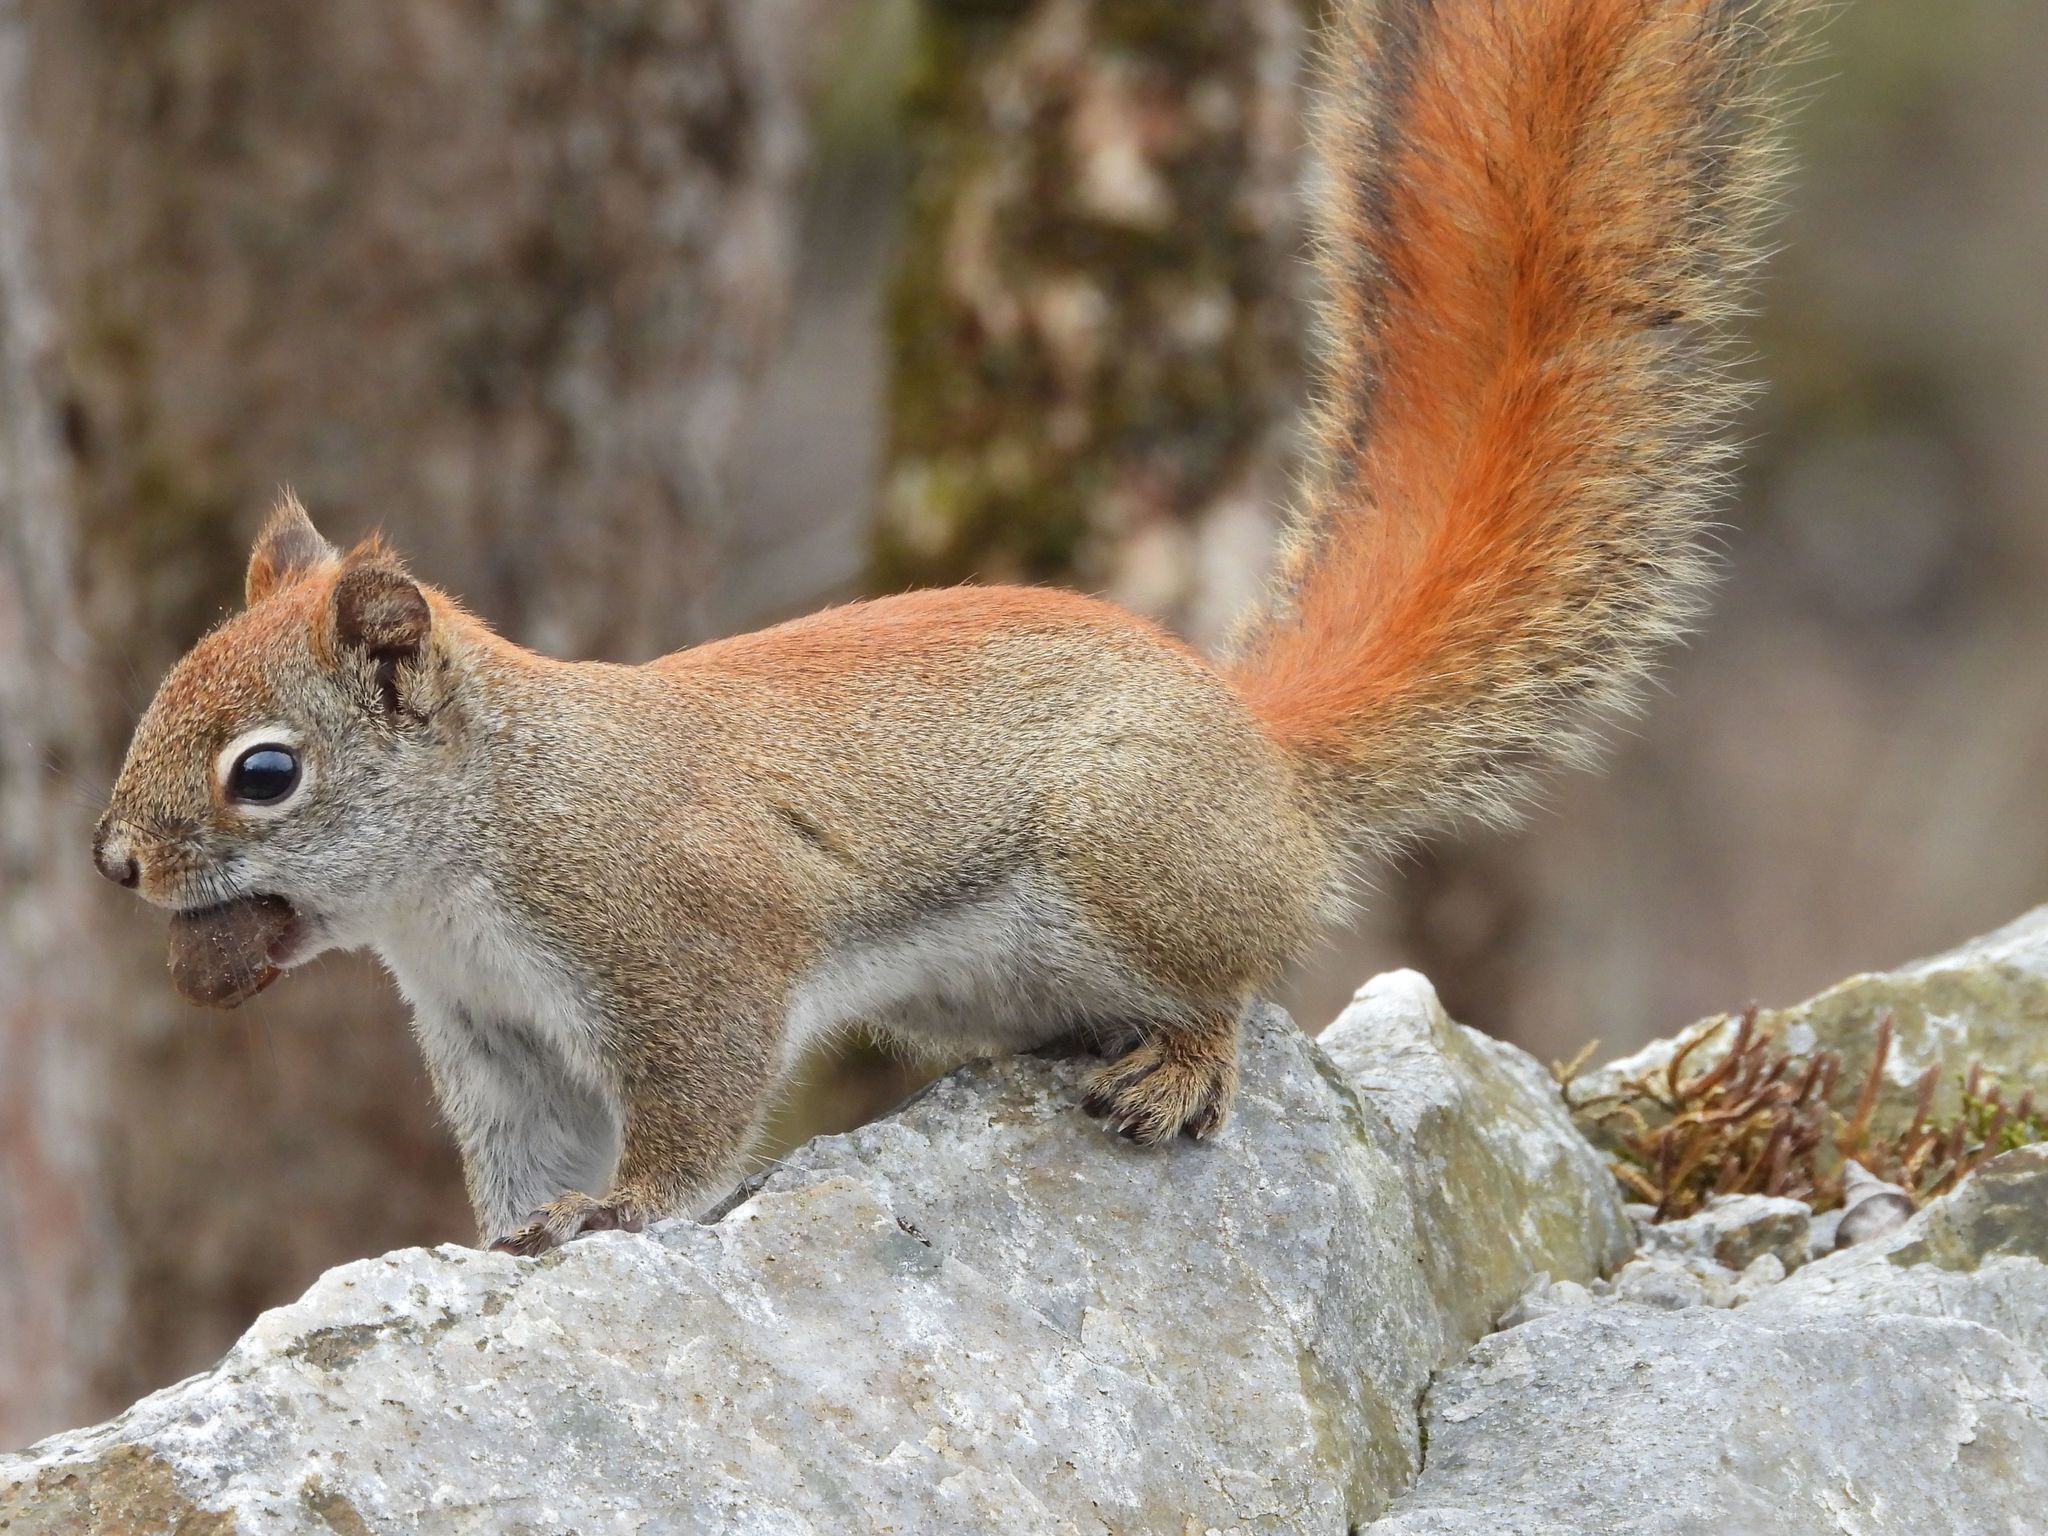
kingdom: Animalia
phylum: Chordata
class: Mammalia
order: Rodentia
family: Sciuridae
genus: Tamiasciurus
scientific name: Tamiasciurus hudsonicus
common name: Red squirrel
